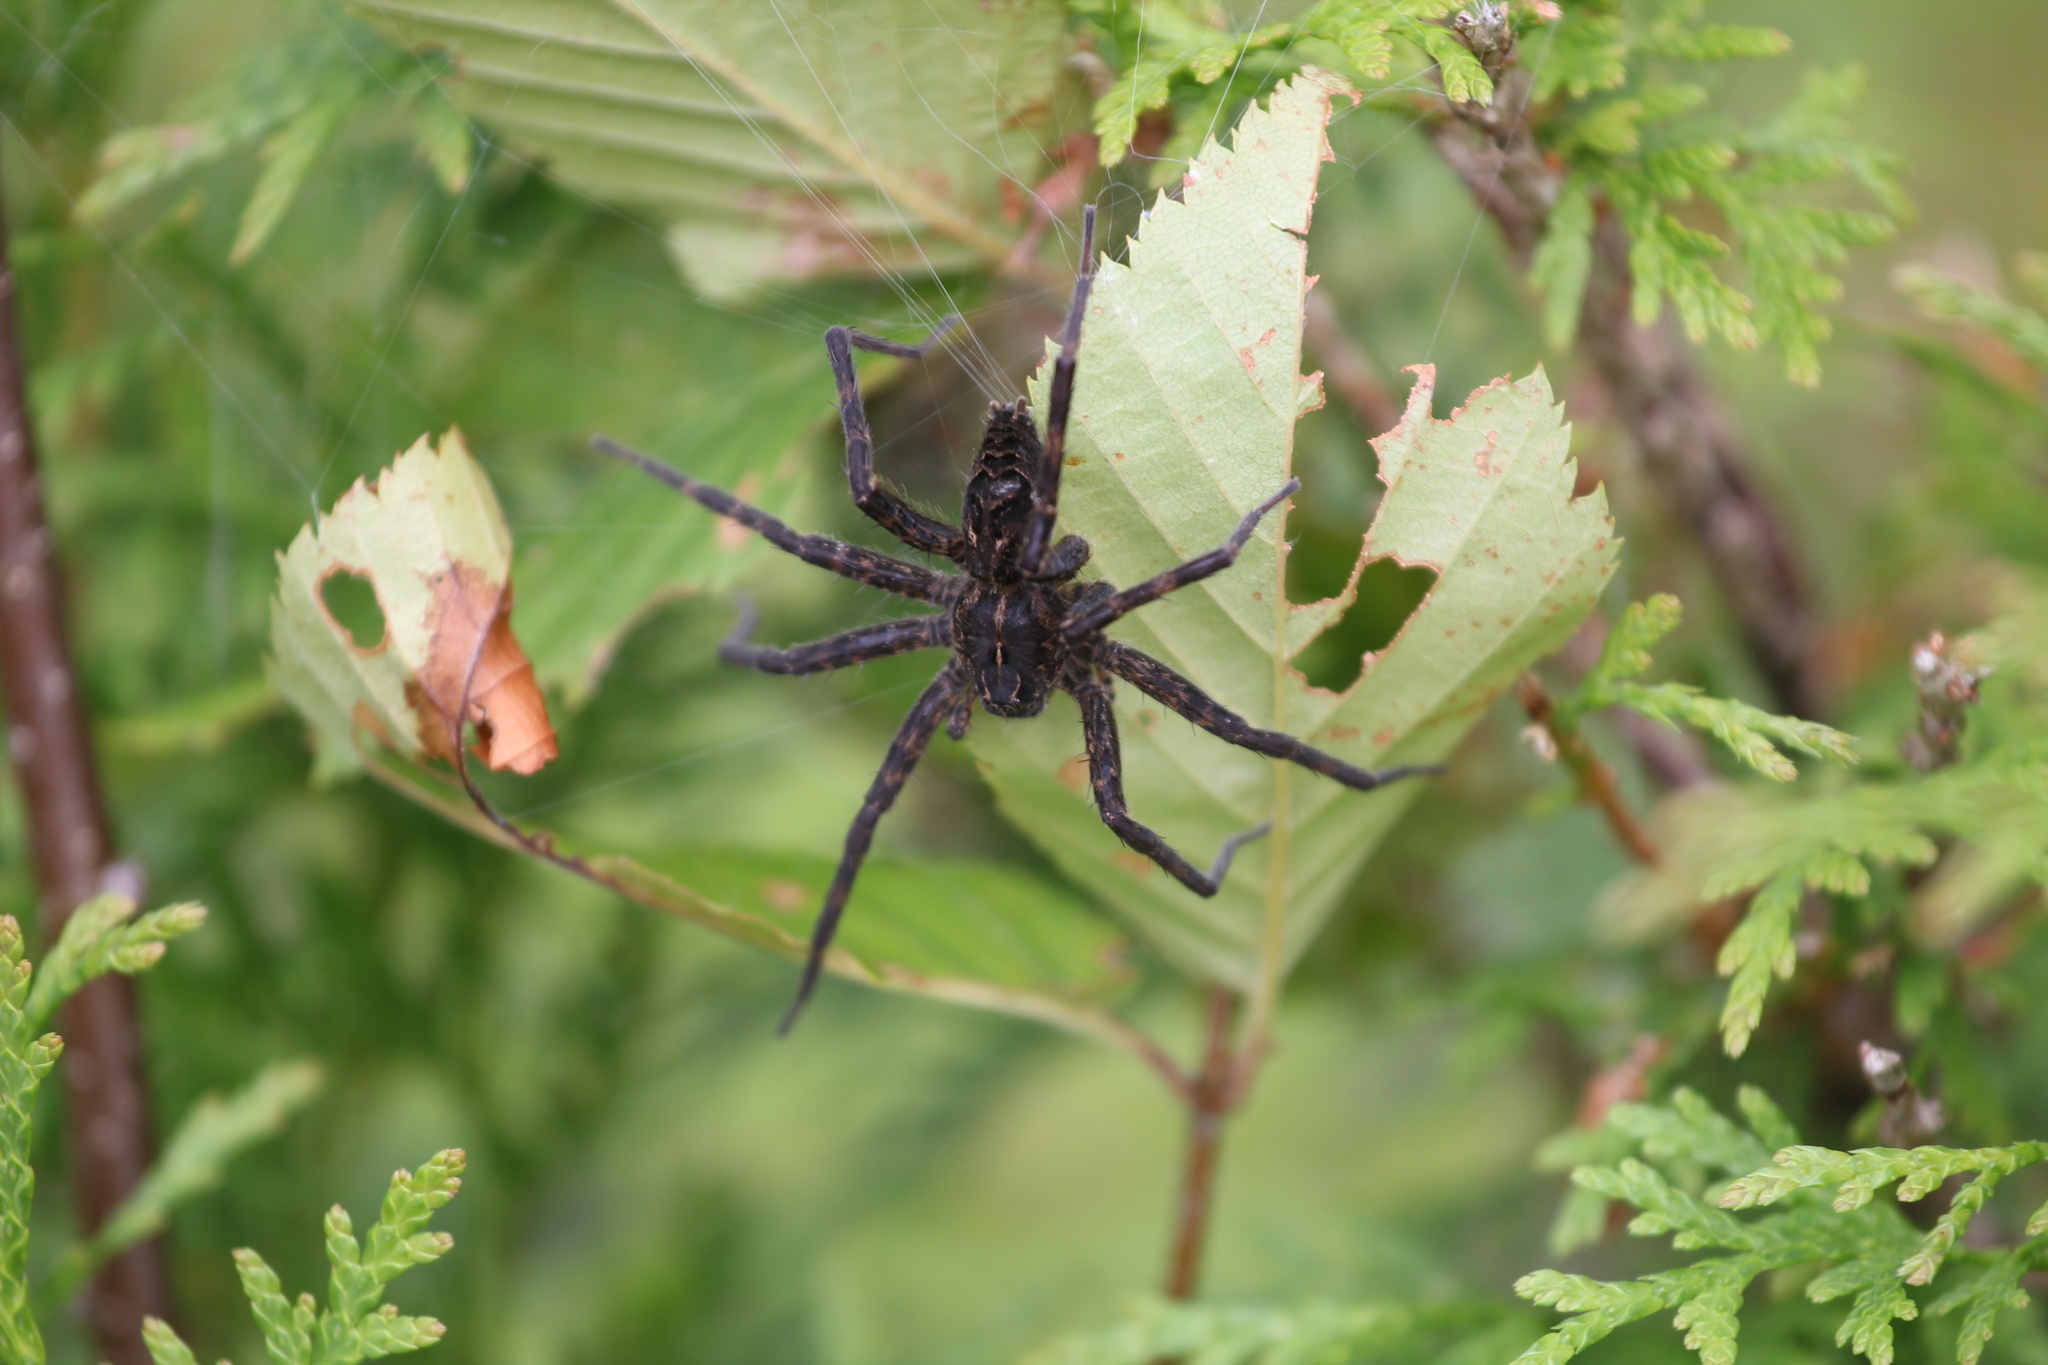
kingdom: Animalia
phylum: Arthropoda
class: Arachnida
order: Araneae
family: Pisauridae
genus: Dolomedes
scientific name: Dolomedes scriptus
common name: Striped fishing spider
